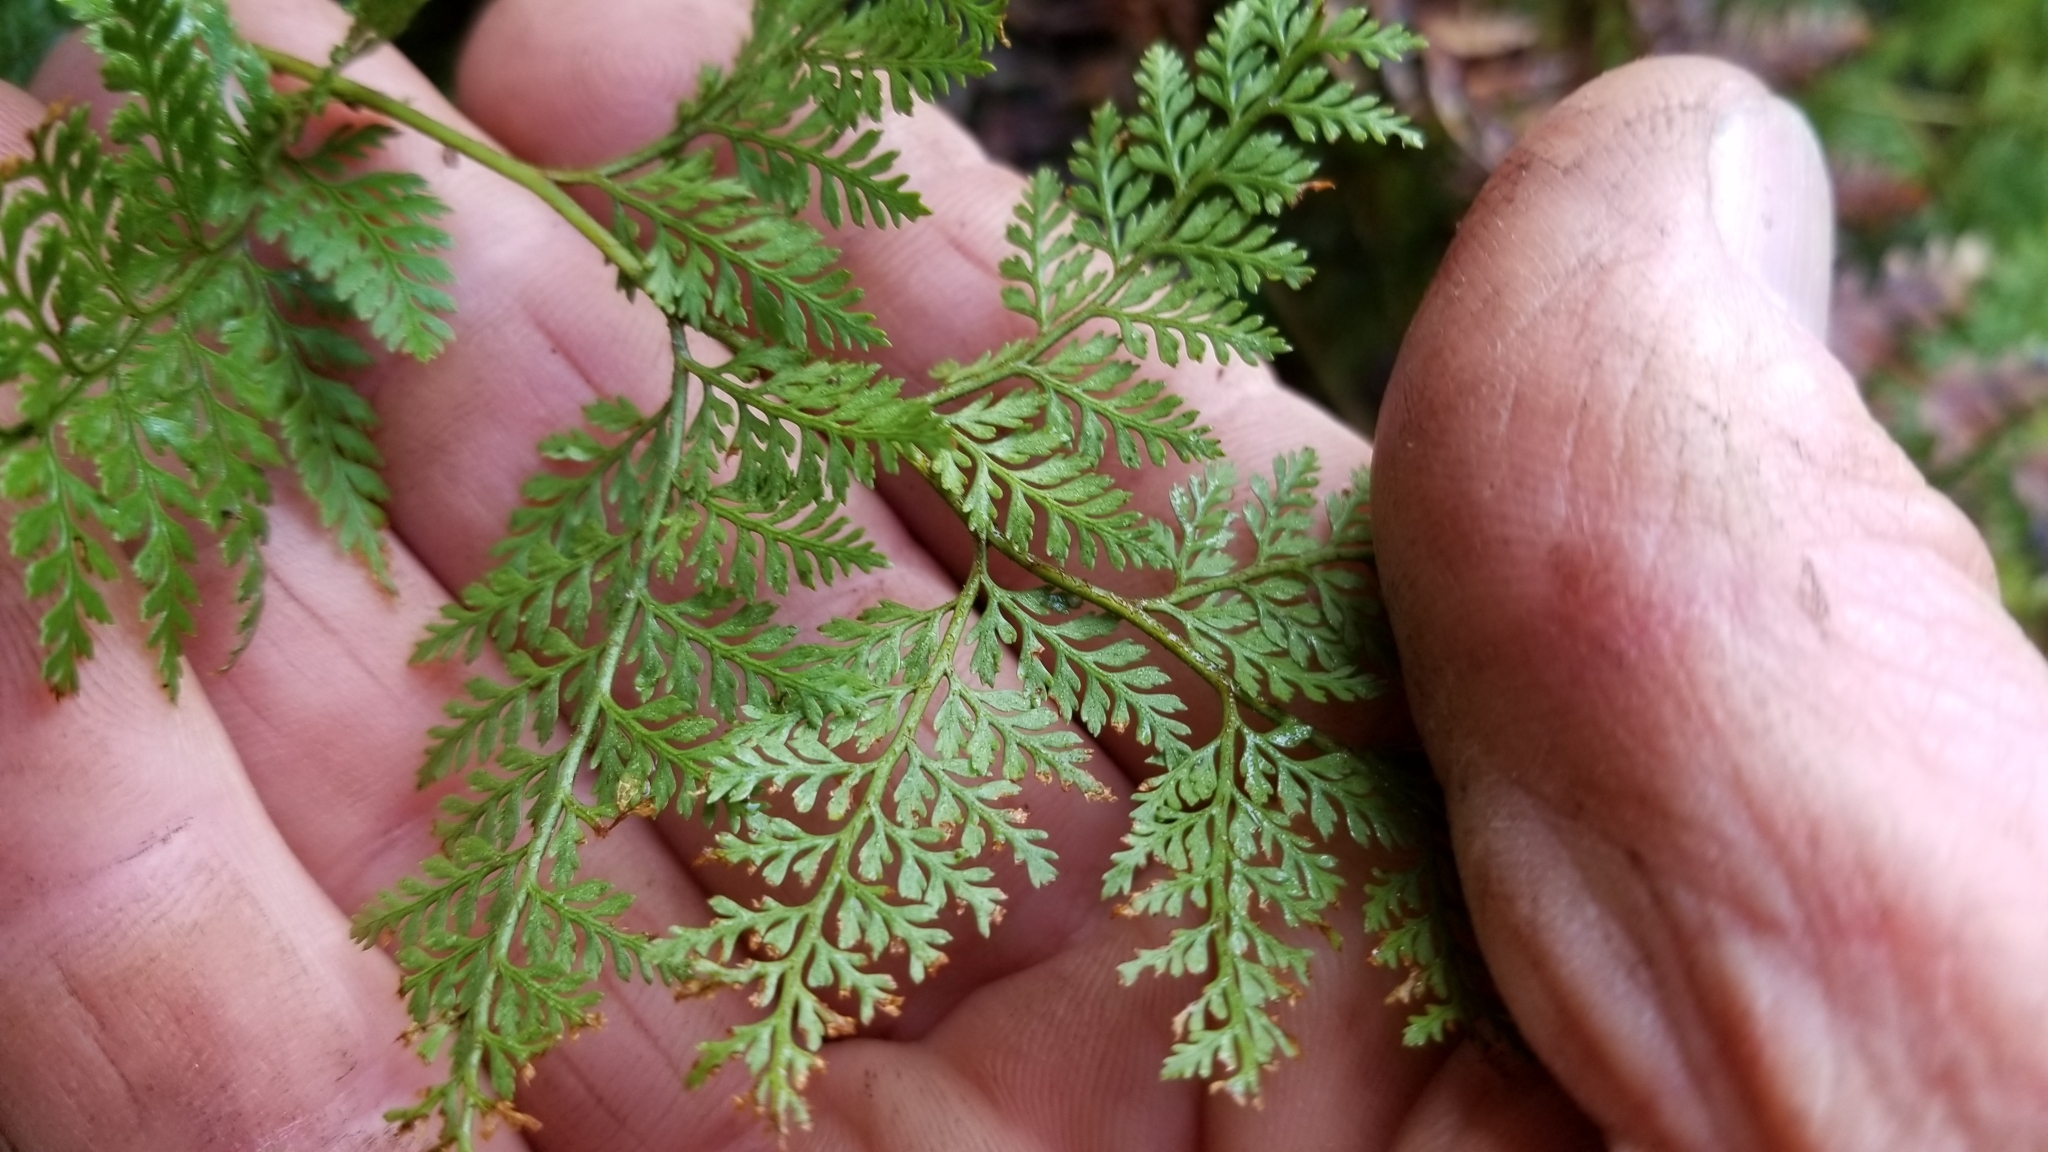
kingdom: Plantae
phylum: Tracheophyta
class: Polypodiopsida
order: Polypodiales
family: Dennstaedtiaceae
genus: Paesia
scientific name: Paesia scaberula
